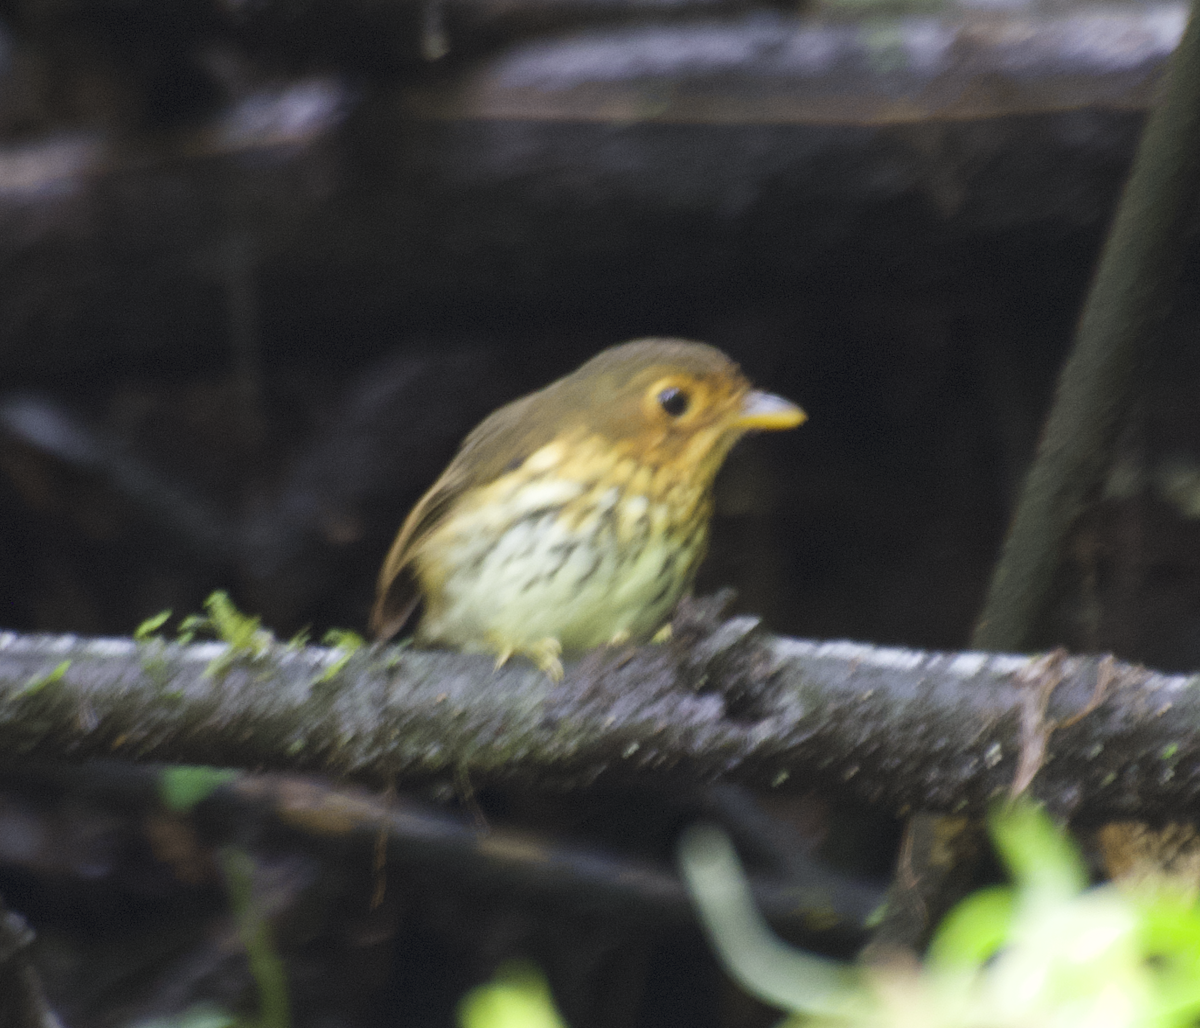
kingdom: Animalia
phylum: Chordata
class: Aves
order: Passeriformes
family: Grallariidae
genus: Grallaricula
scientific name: Grallaricula flavirostris
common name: Ochre-breasted antpitta
